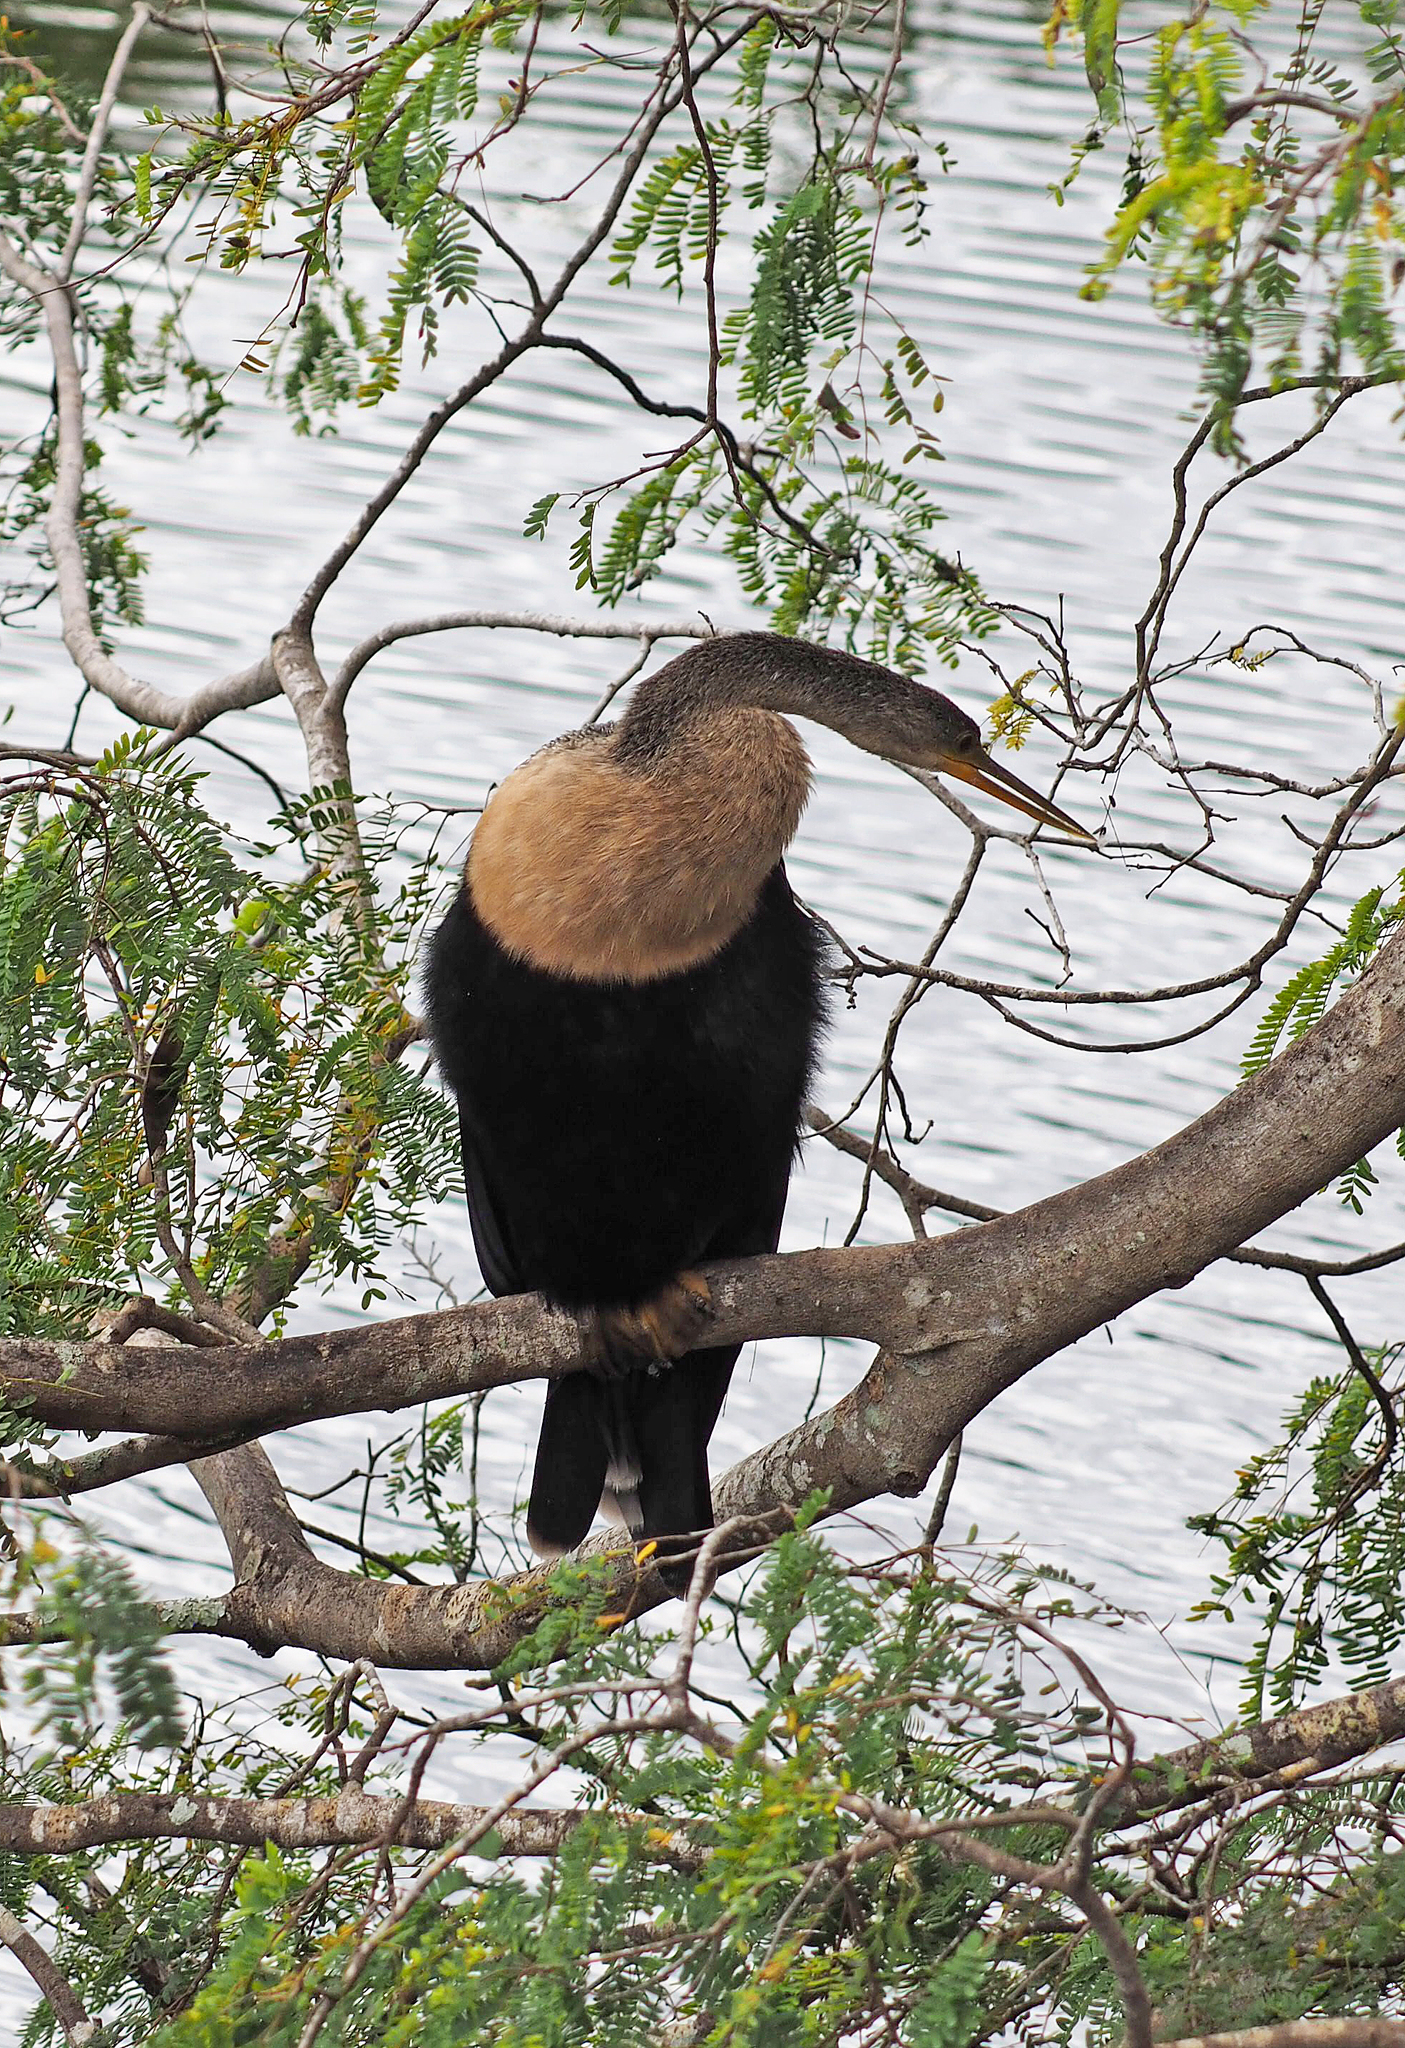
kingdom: Animalia
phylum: Chordata
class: Aves
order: Suliformes
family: Anhingidae
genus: Anhinga
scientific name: Anhinga anhinga
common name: Anhinga
